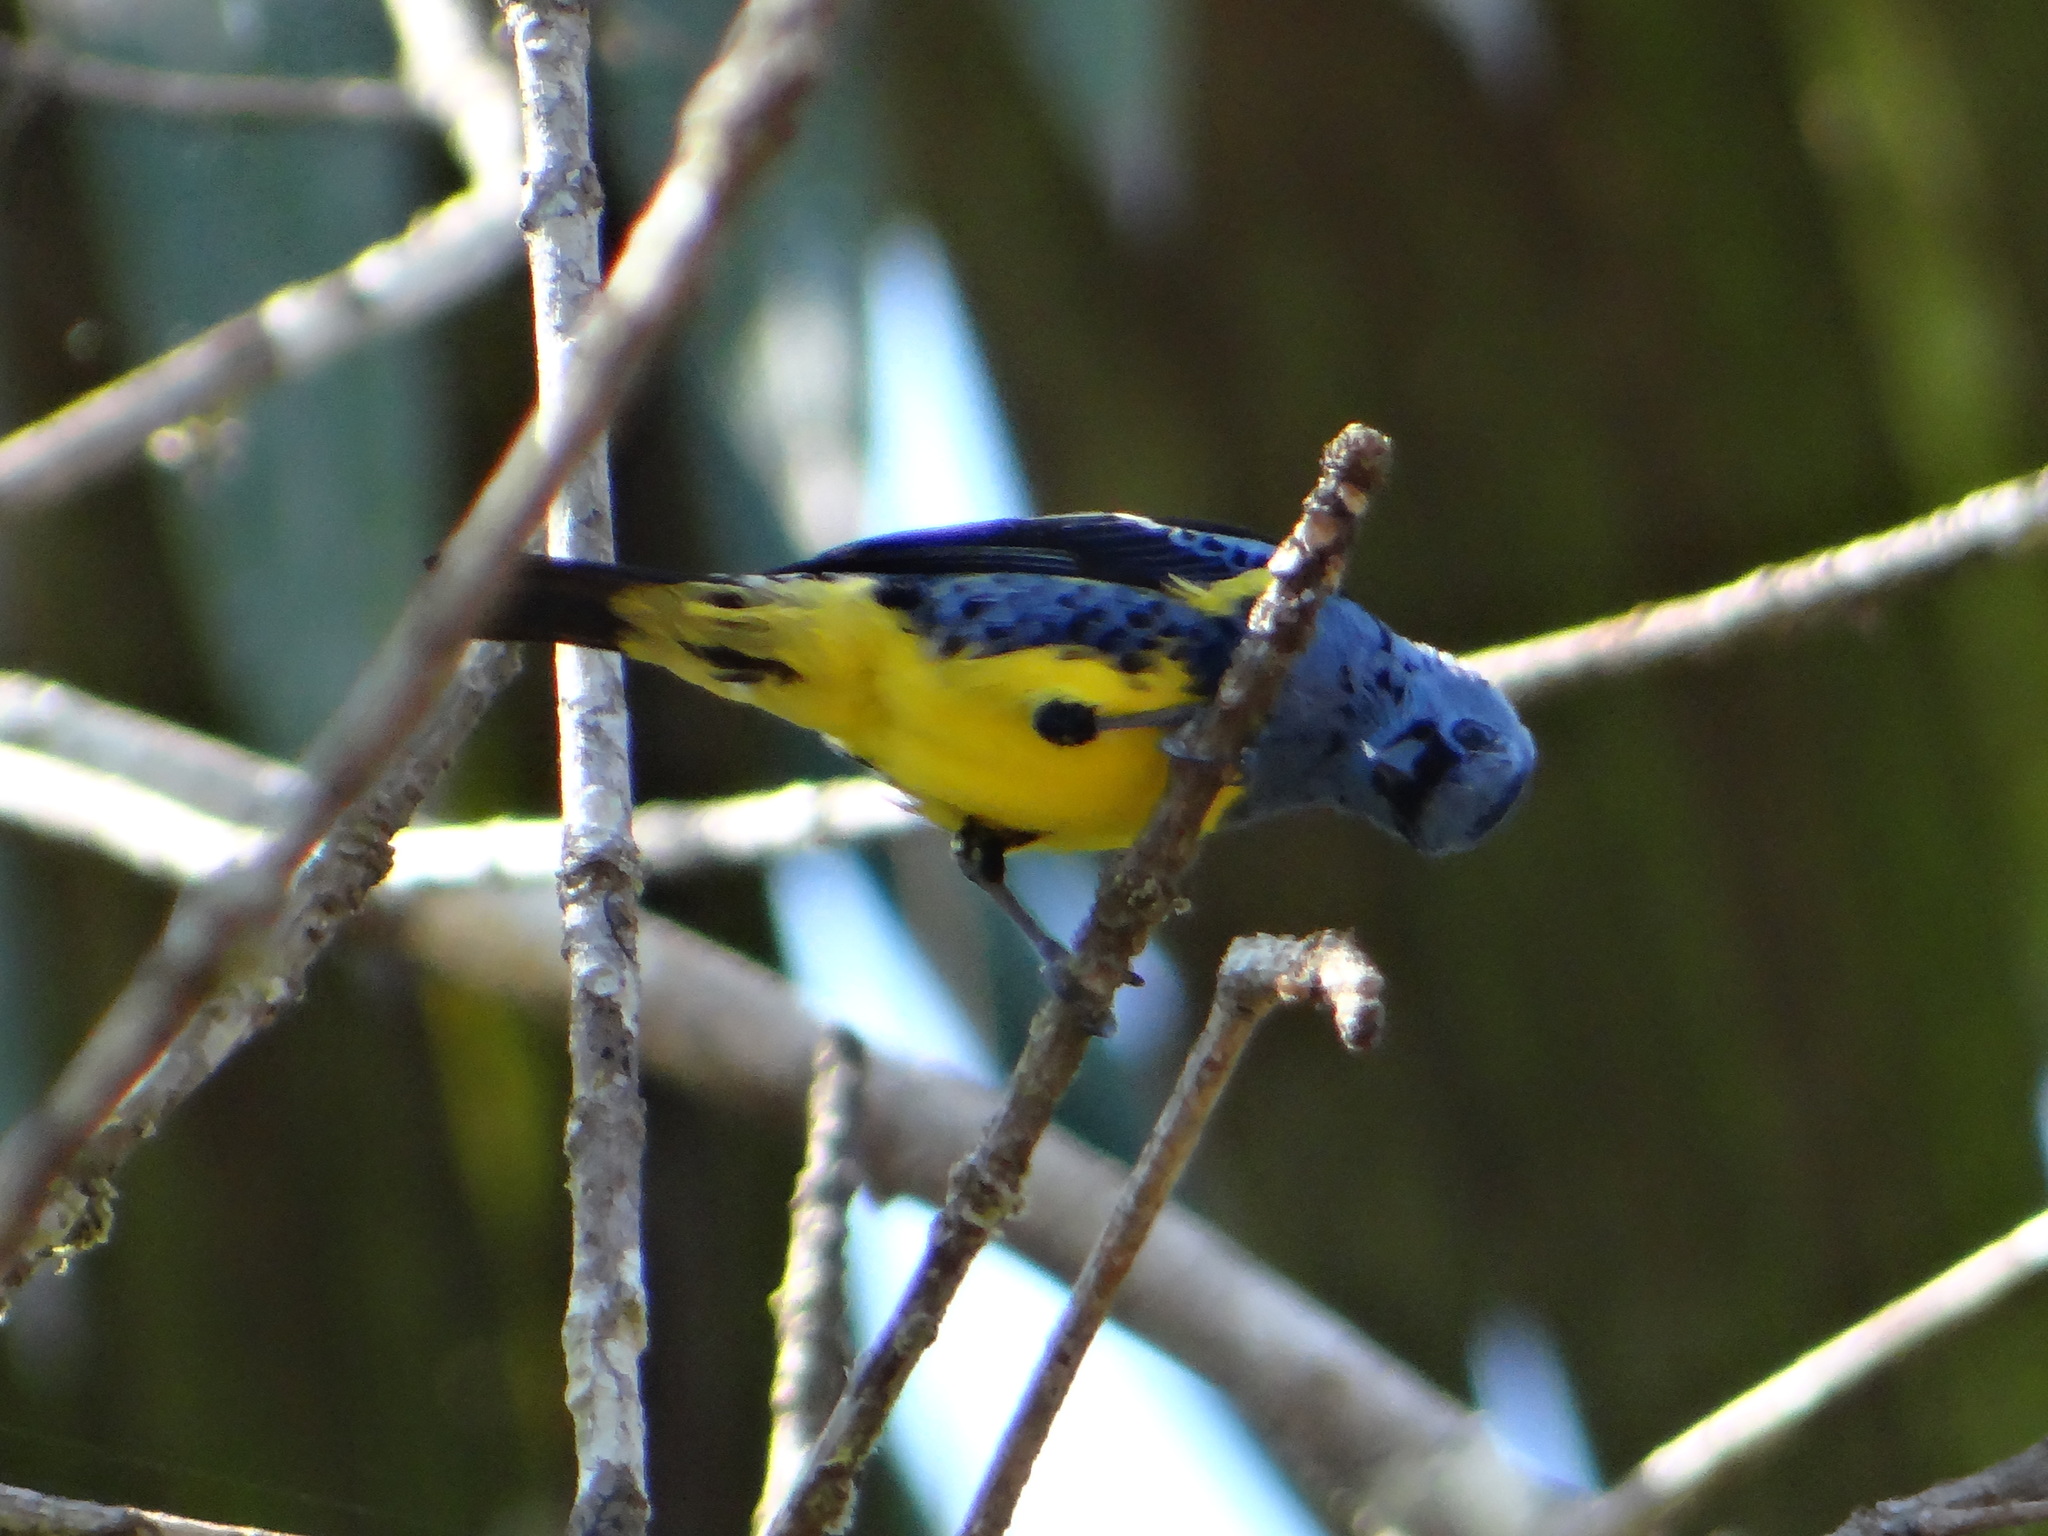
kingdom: Animalia
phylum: Chordata
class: Aves
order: Passeriformes
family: Thraupidae
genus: Tangara
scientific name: Tangara mexicana
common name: Turquoise tanager
